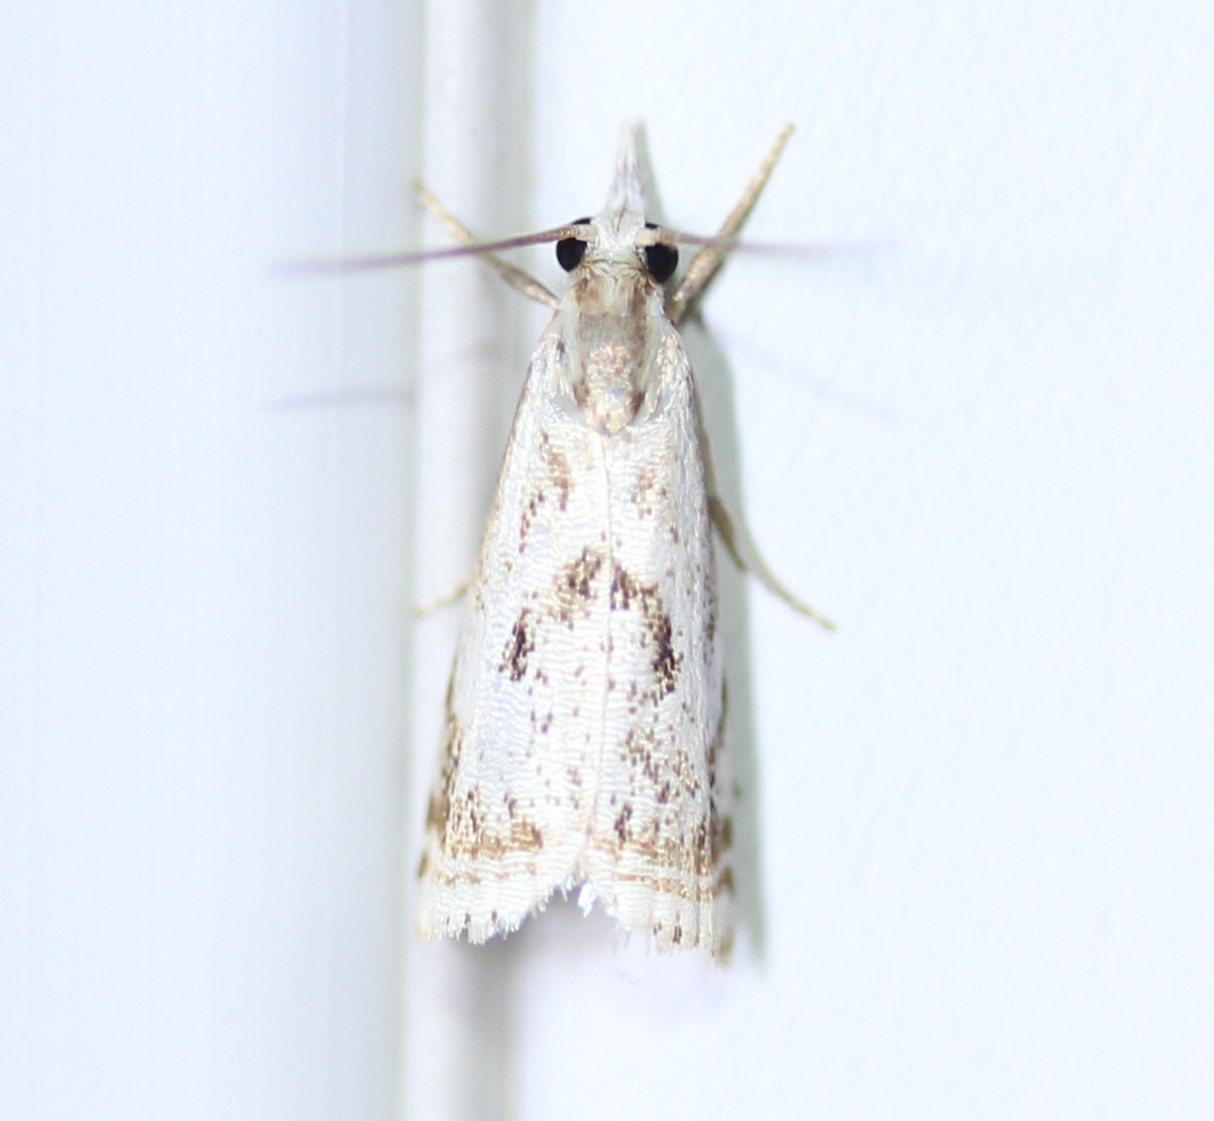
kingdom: Animalia
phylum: Arthropoda
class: Insecta
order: Lepidoptera
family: Crambidae
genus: Microcrambus
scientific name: Microcrambus elegans
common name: Elegant grass-veneer
